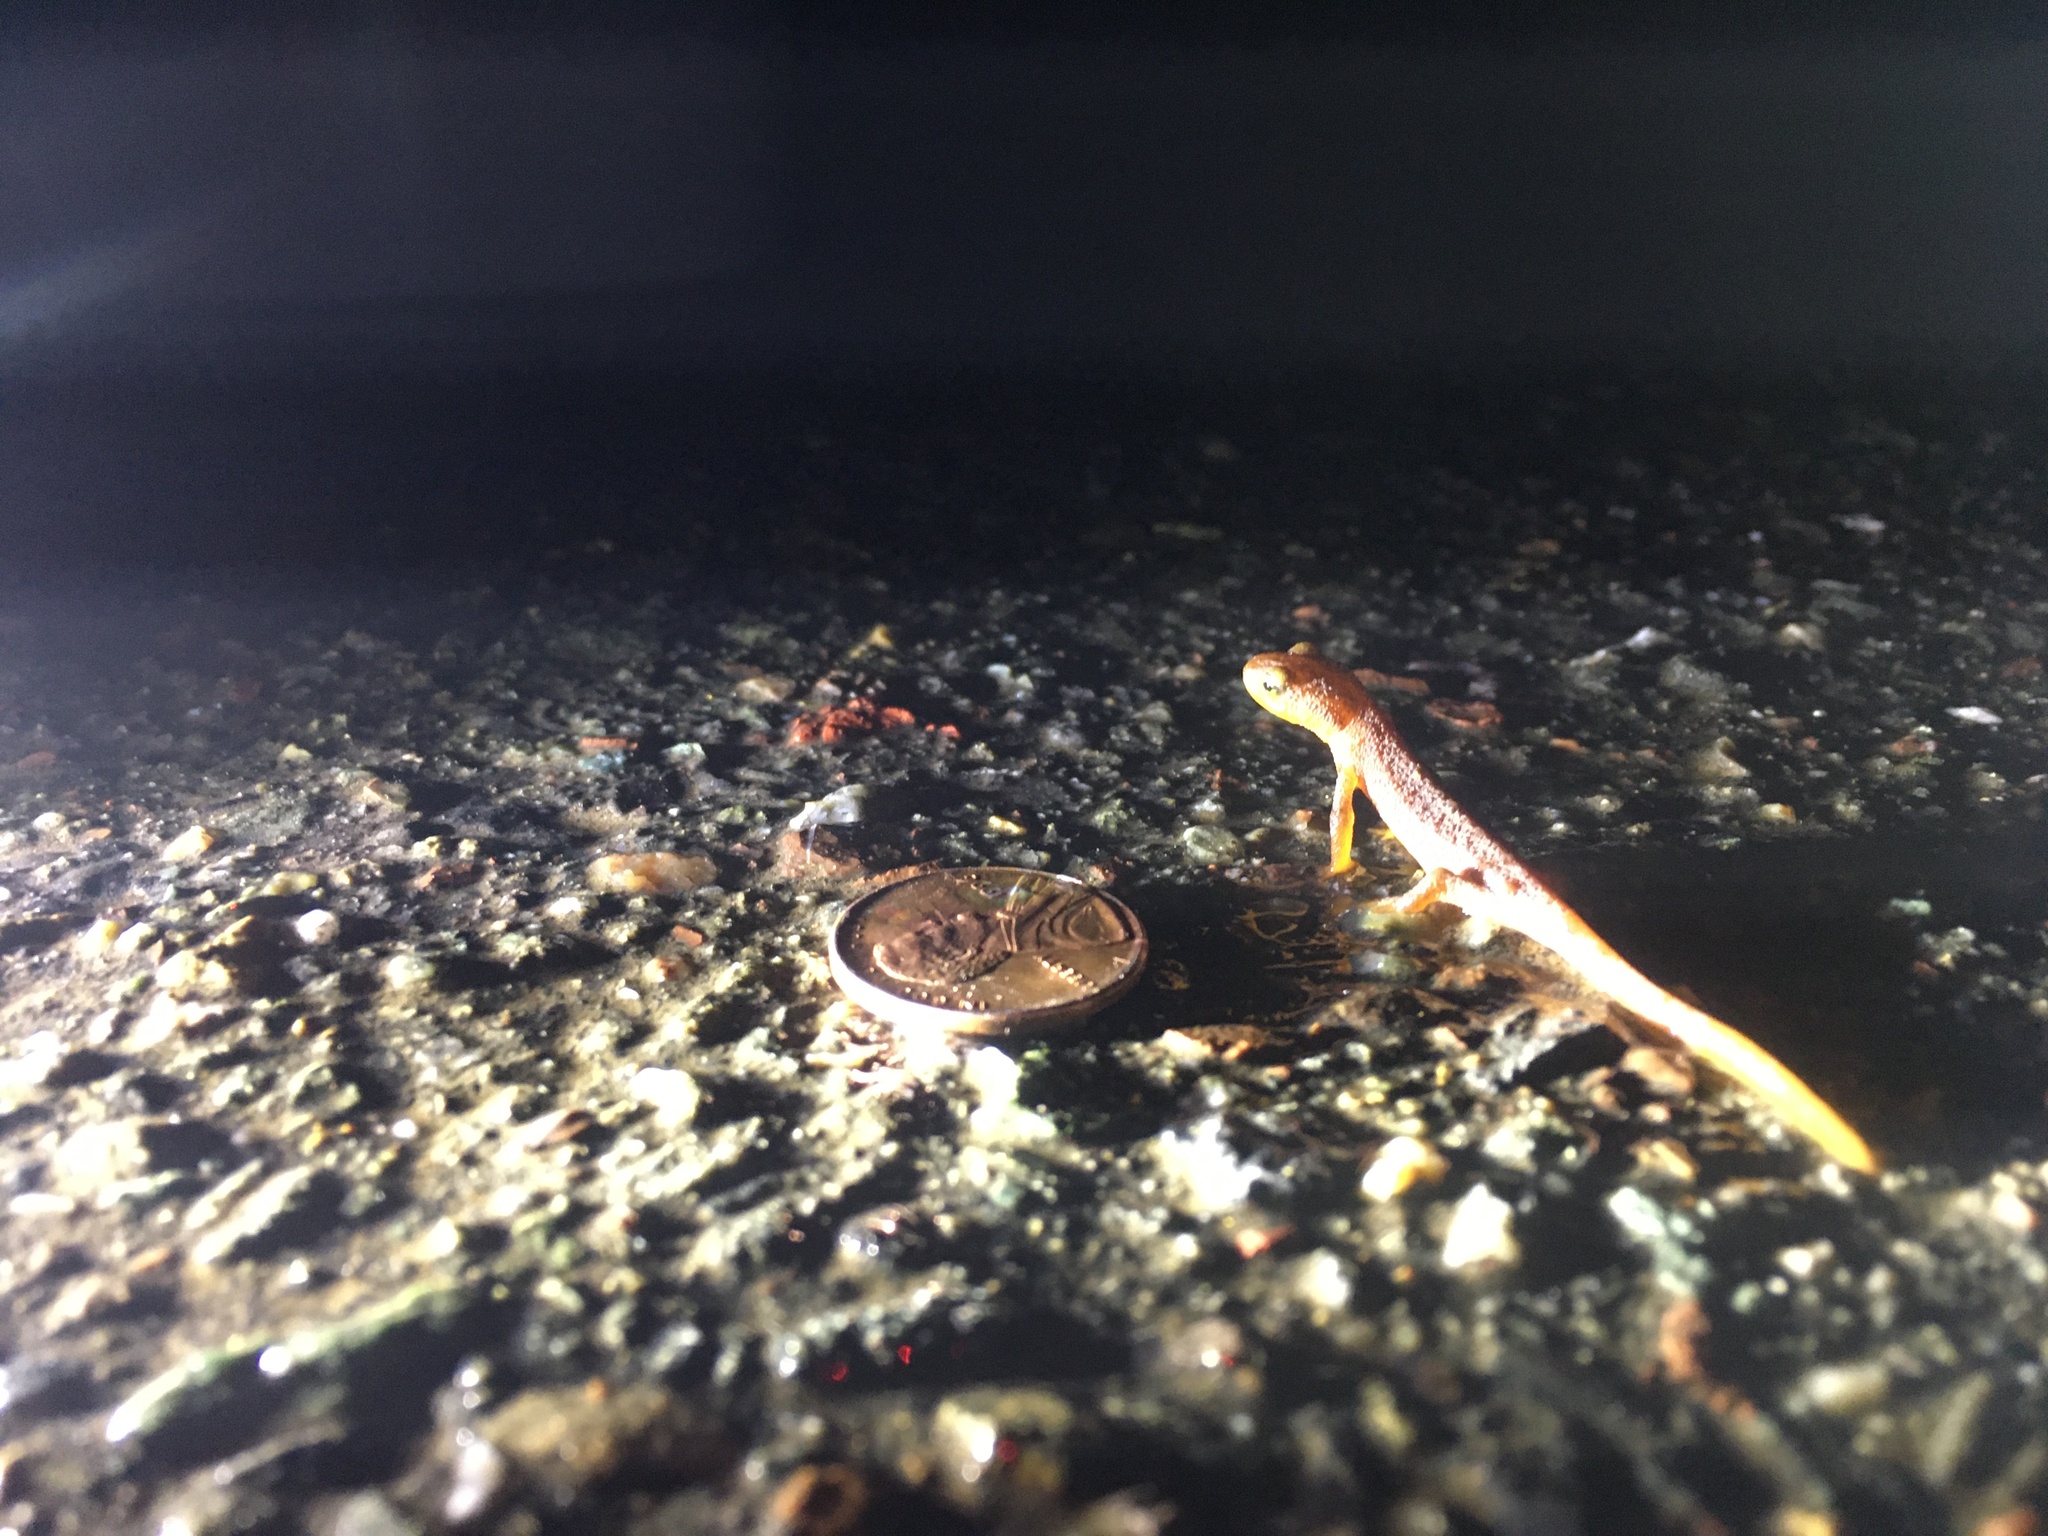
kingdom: Animalia
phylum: Chordata
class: Amphibia
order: Caudata
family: Salamandridae
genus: Taricha
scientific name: Taricha torosa
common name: California newt
